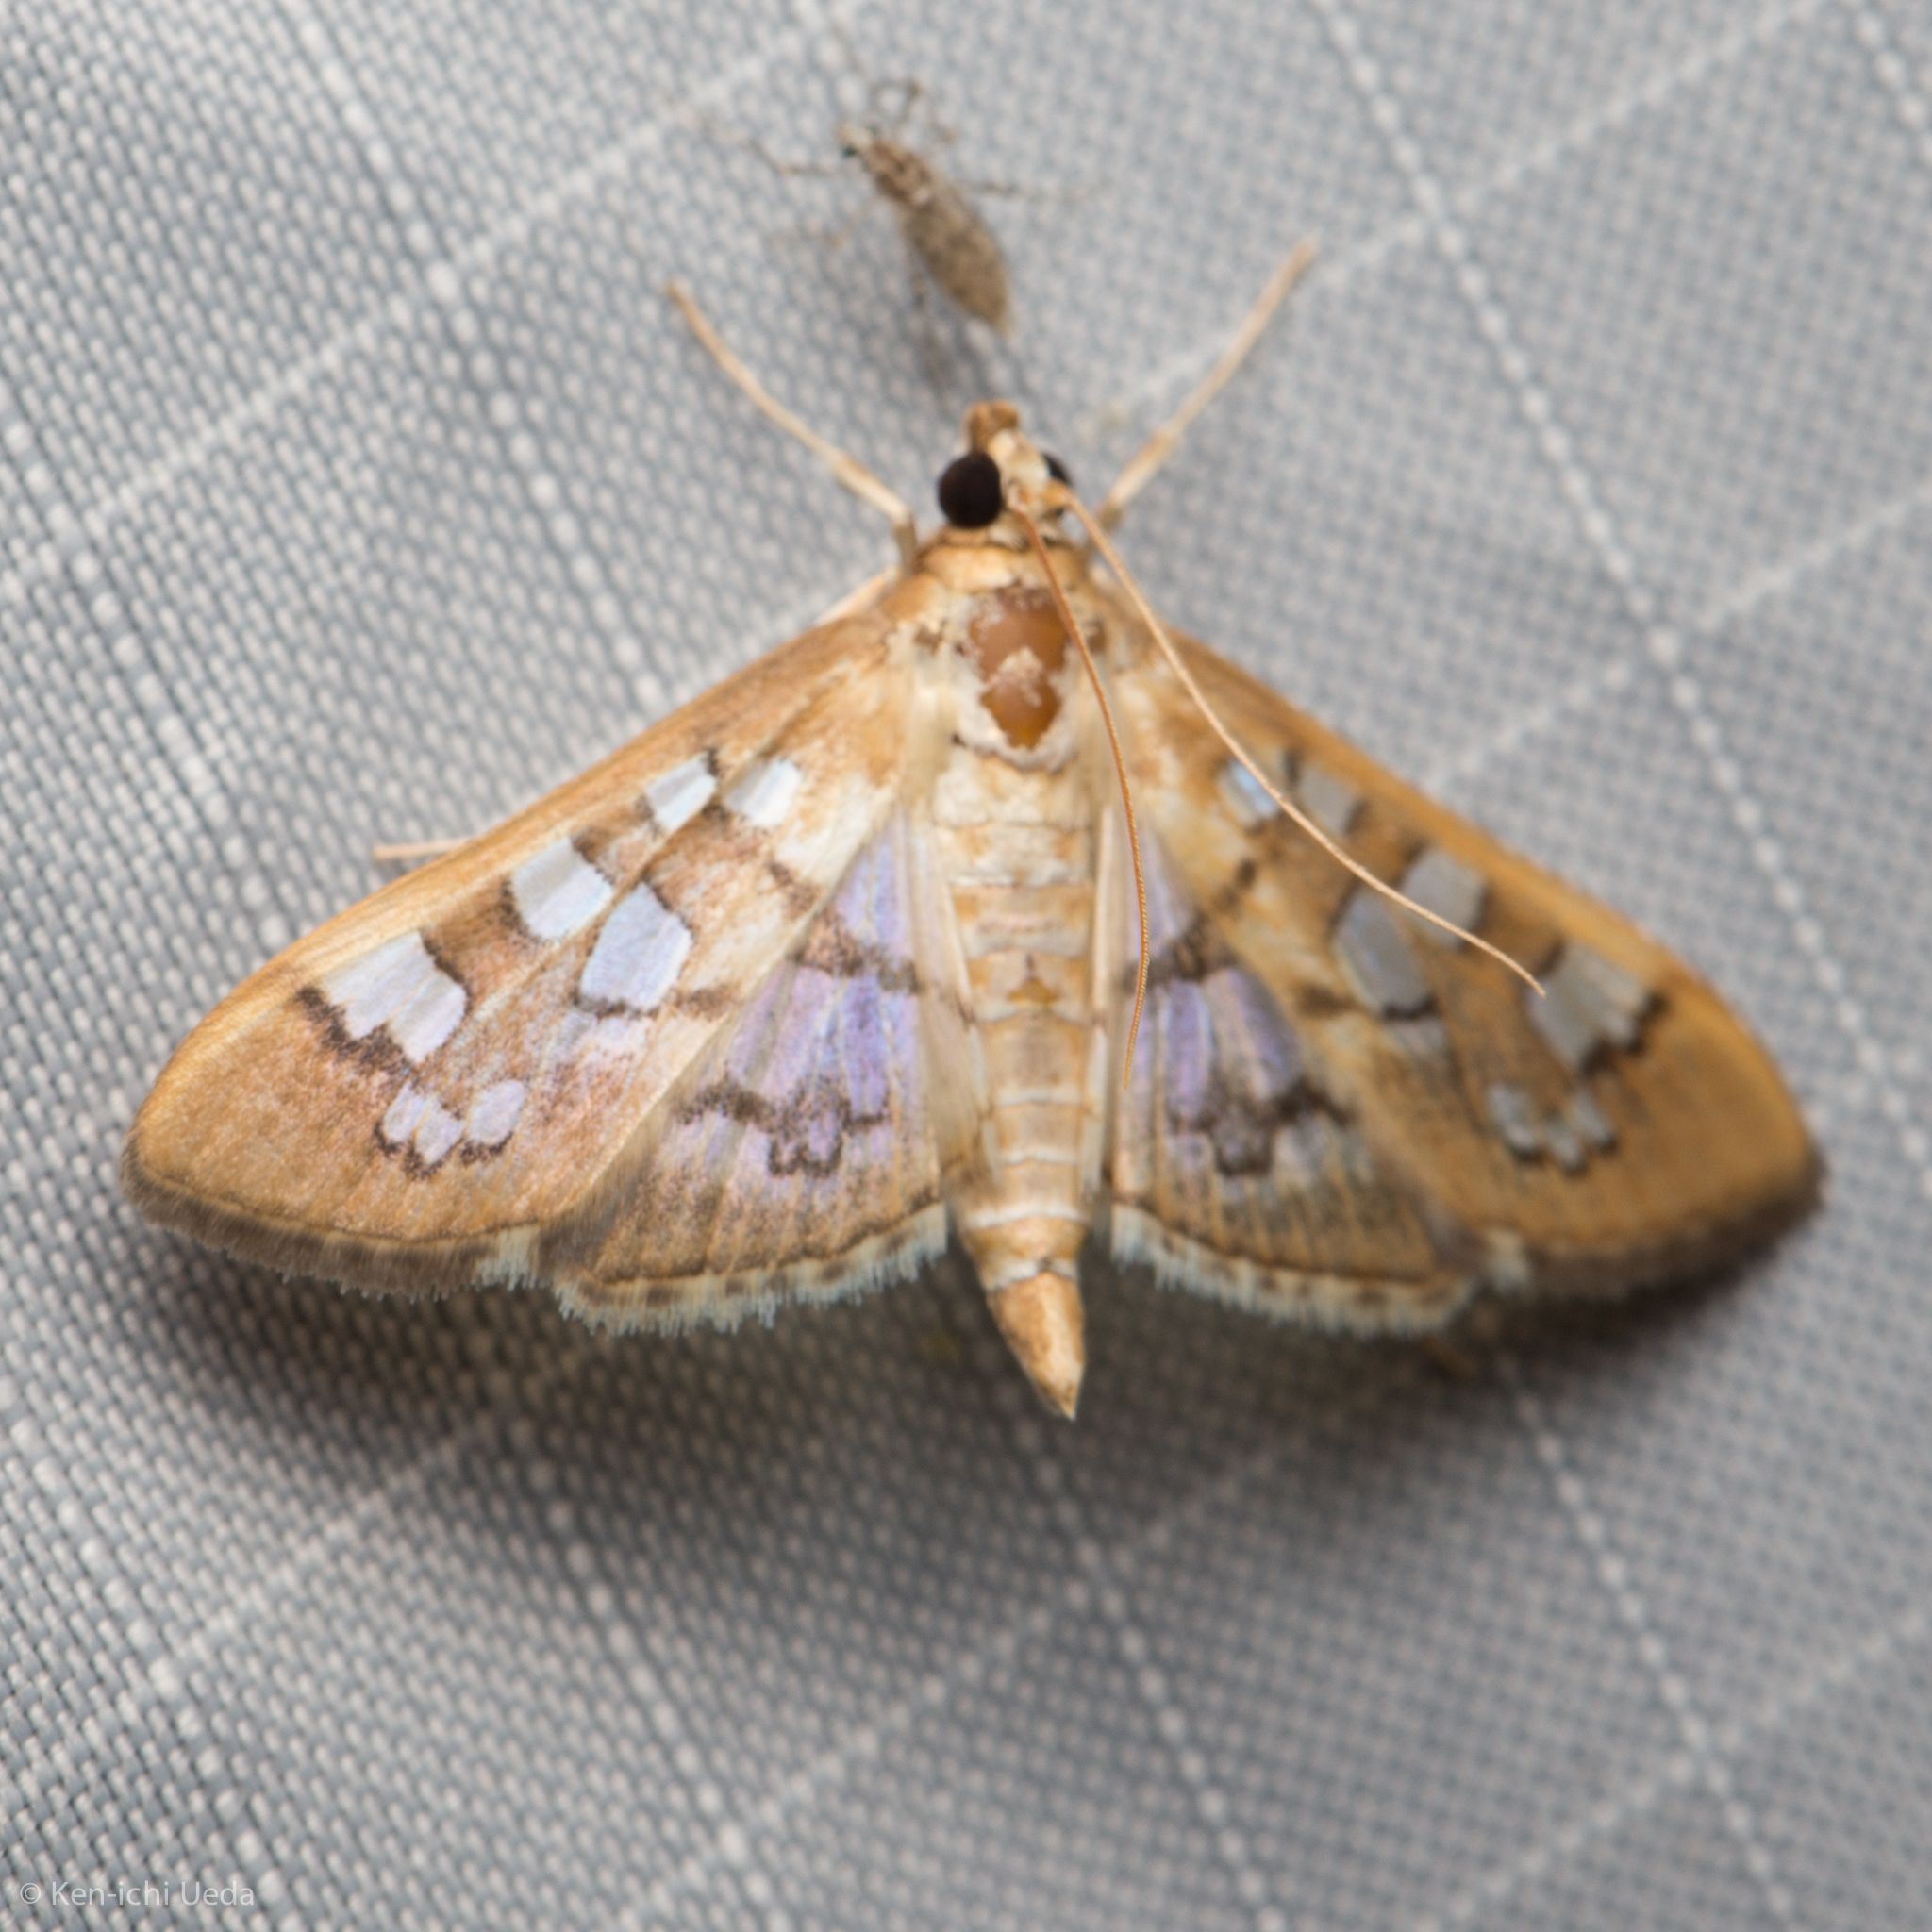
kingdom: Animalia
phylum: Arthropoda
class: Insecta
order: Lepidoptera
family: Crambidae
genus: Samea
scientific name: Samea baccatalis
